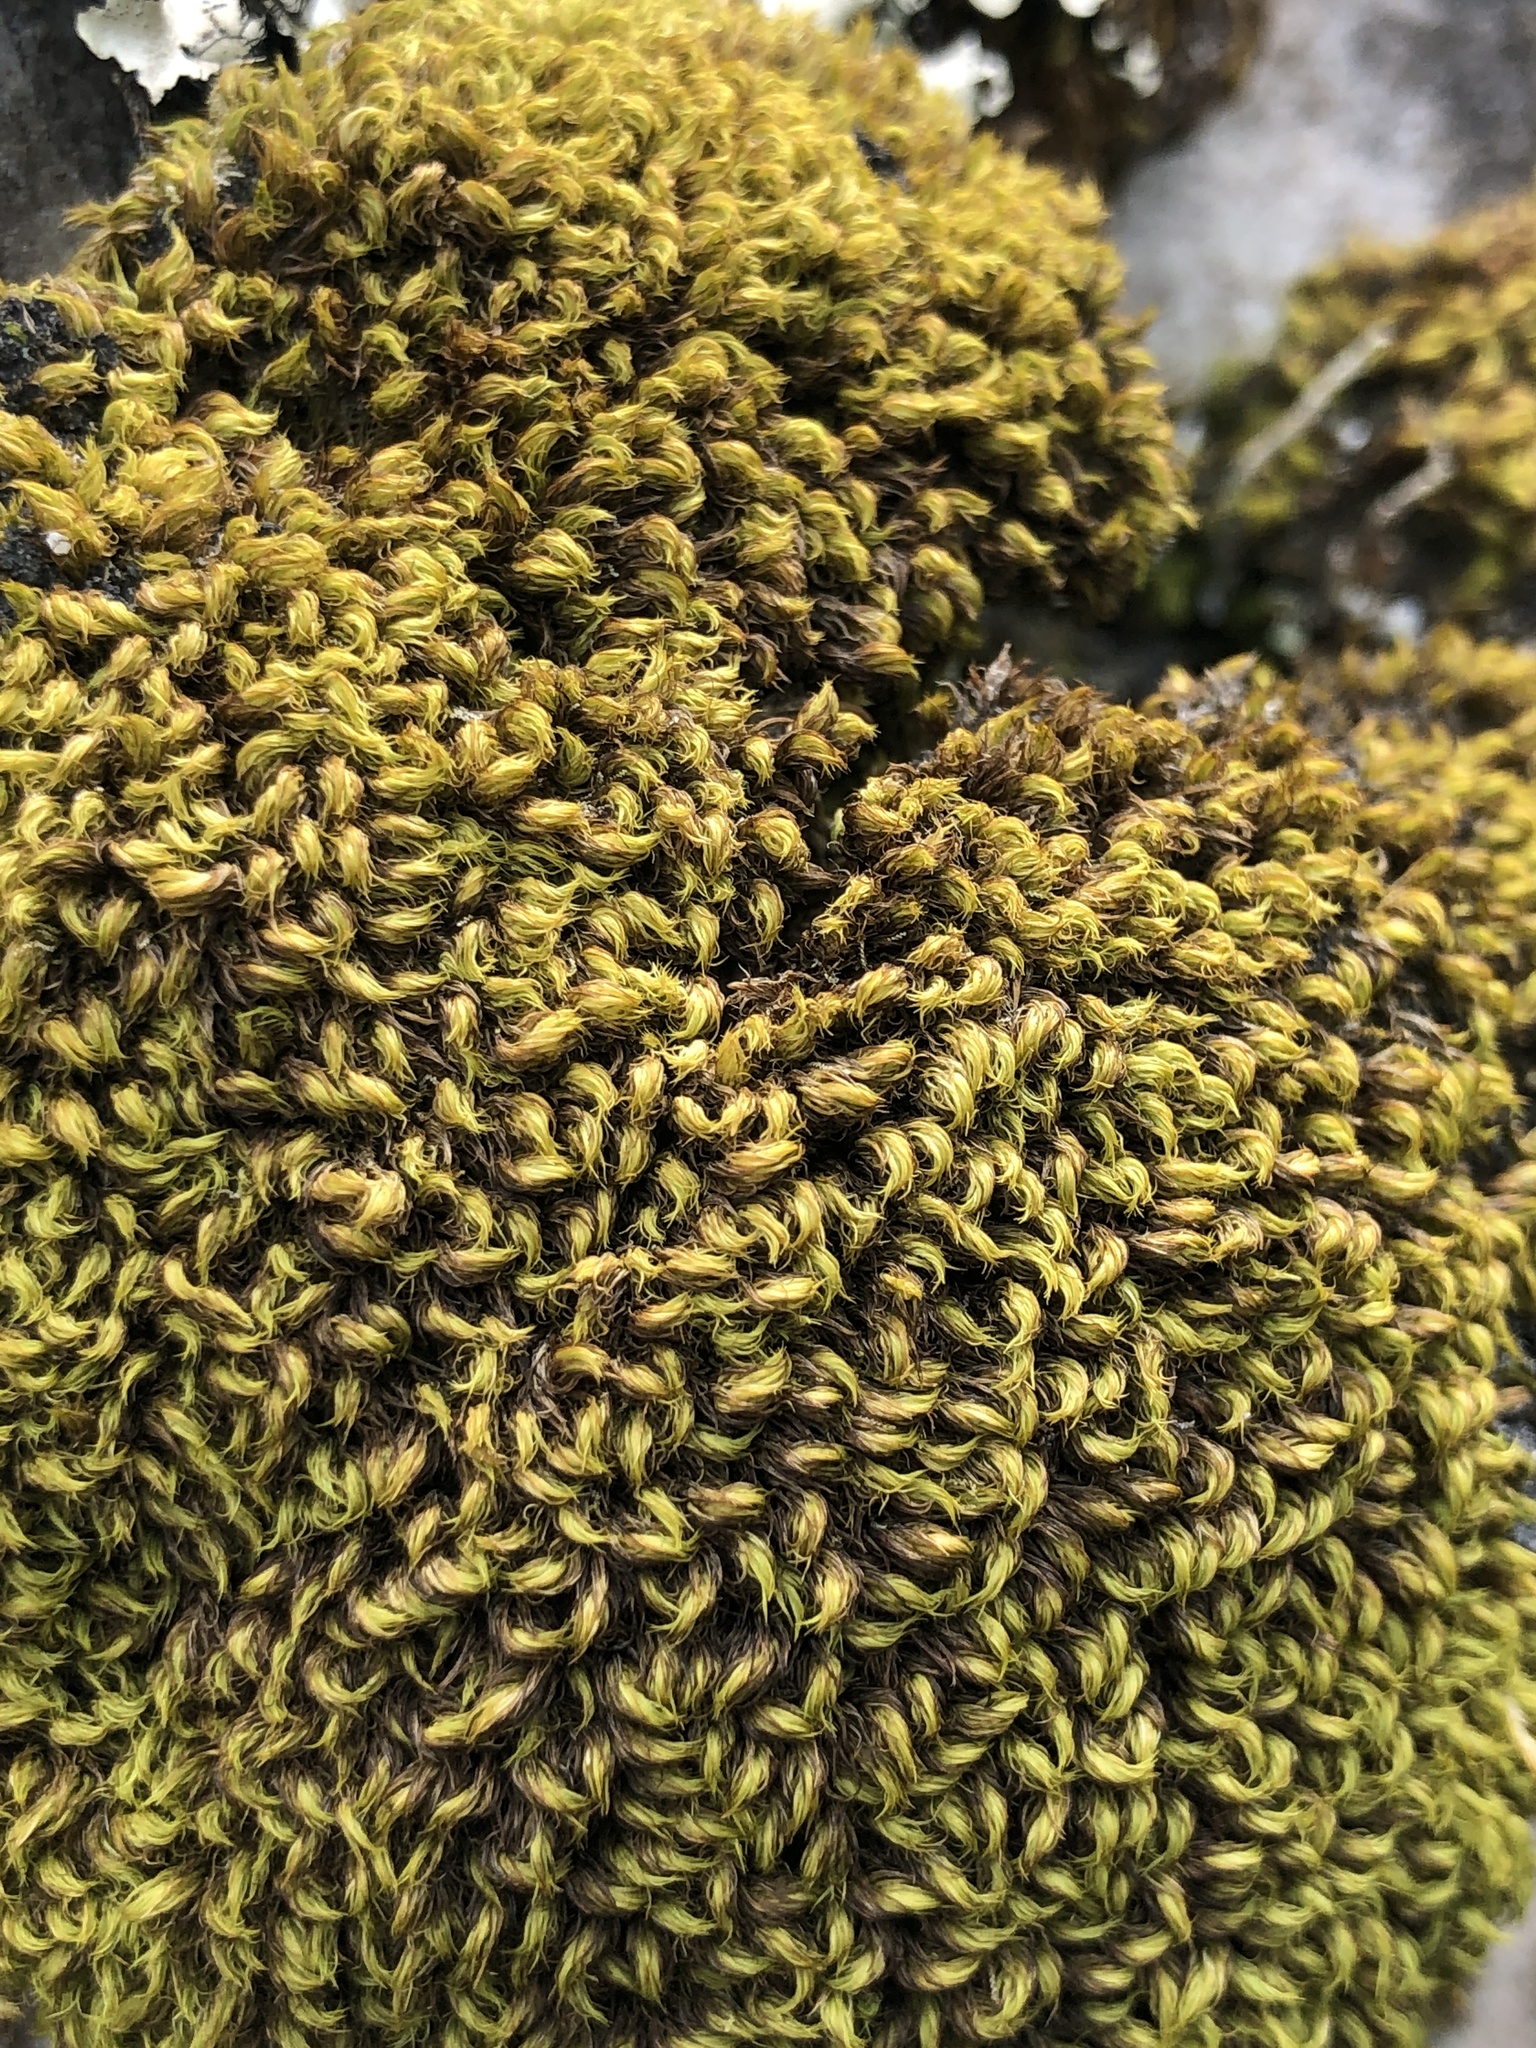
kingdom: Plantae
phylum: Bryophyta
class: Bryopsida
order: Dicranales
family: Dicranaceae
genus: Leucoloma
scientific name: Leucoloma sprengelianum
